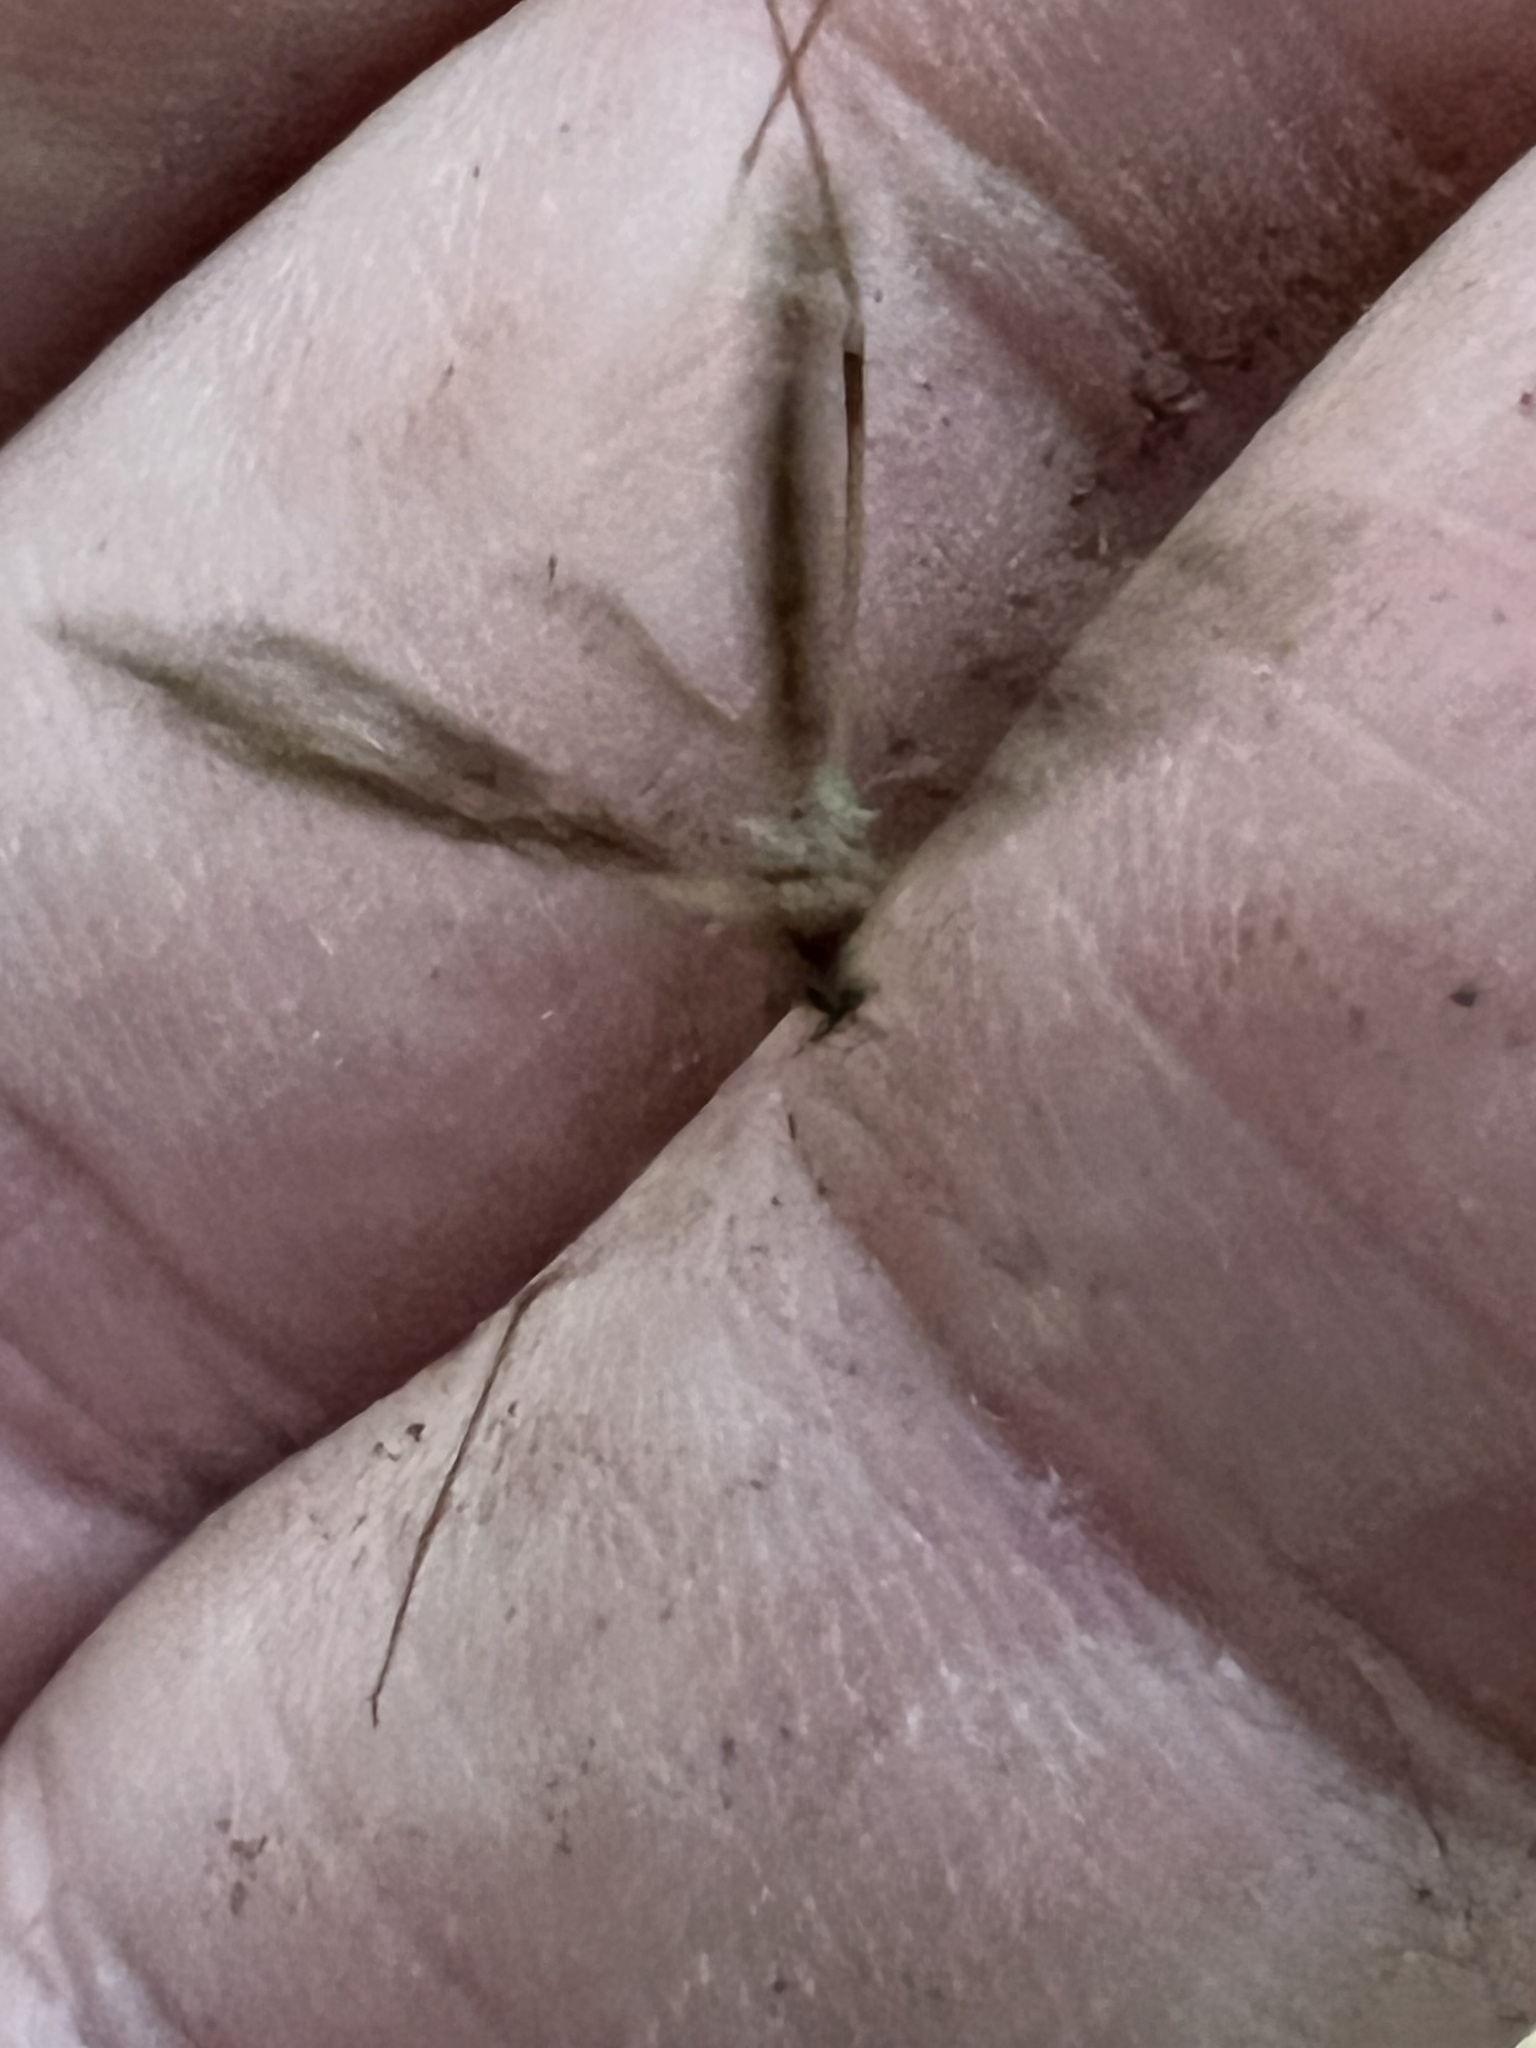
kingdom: Animalia
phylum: Arthropoda
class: Insecta
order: Diptera
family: Limoniidae
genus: Epiphragma
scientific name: Epiphragma solatrix
